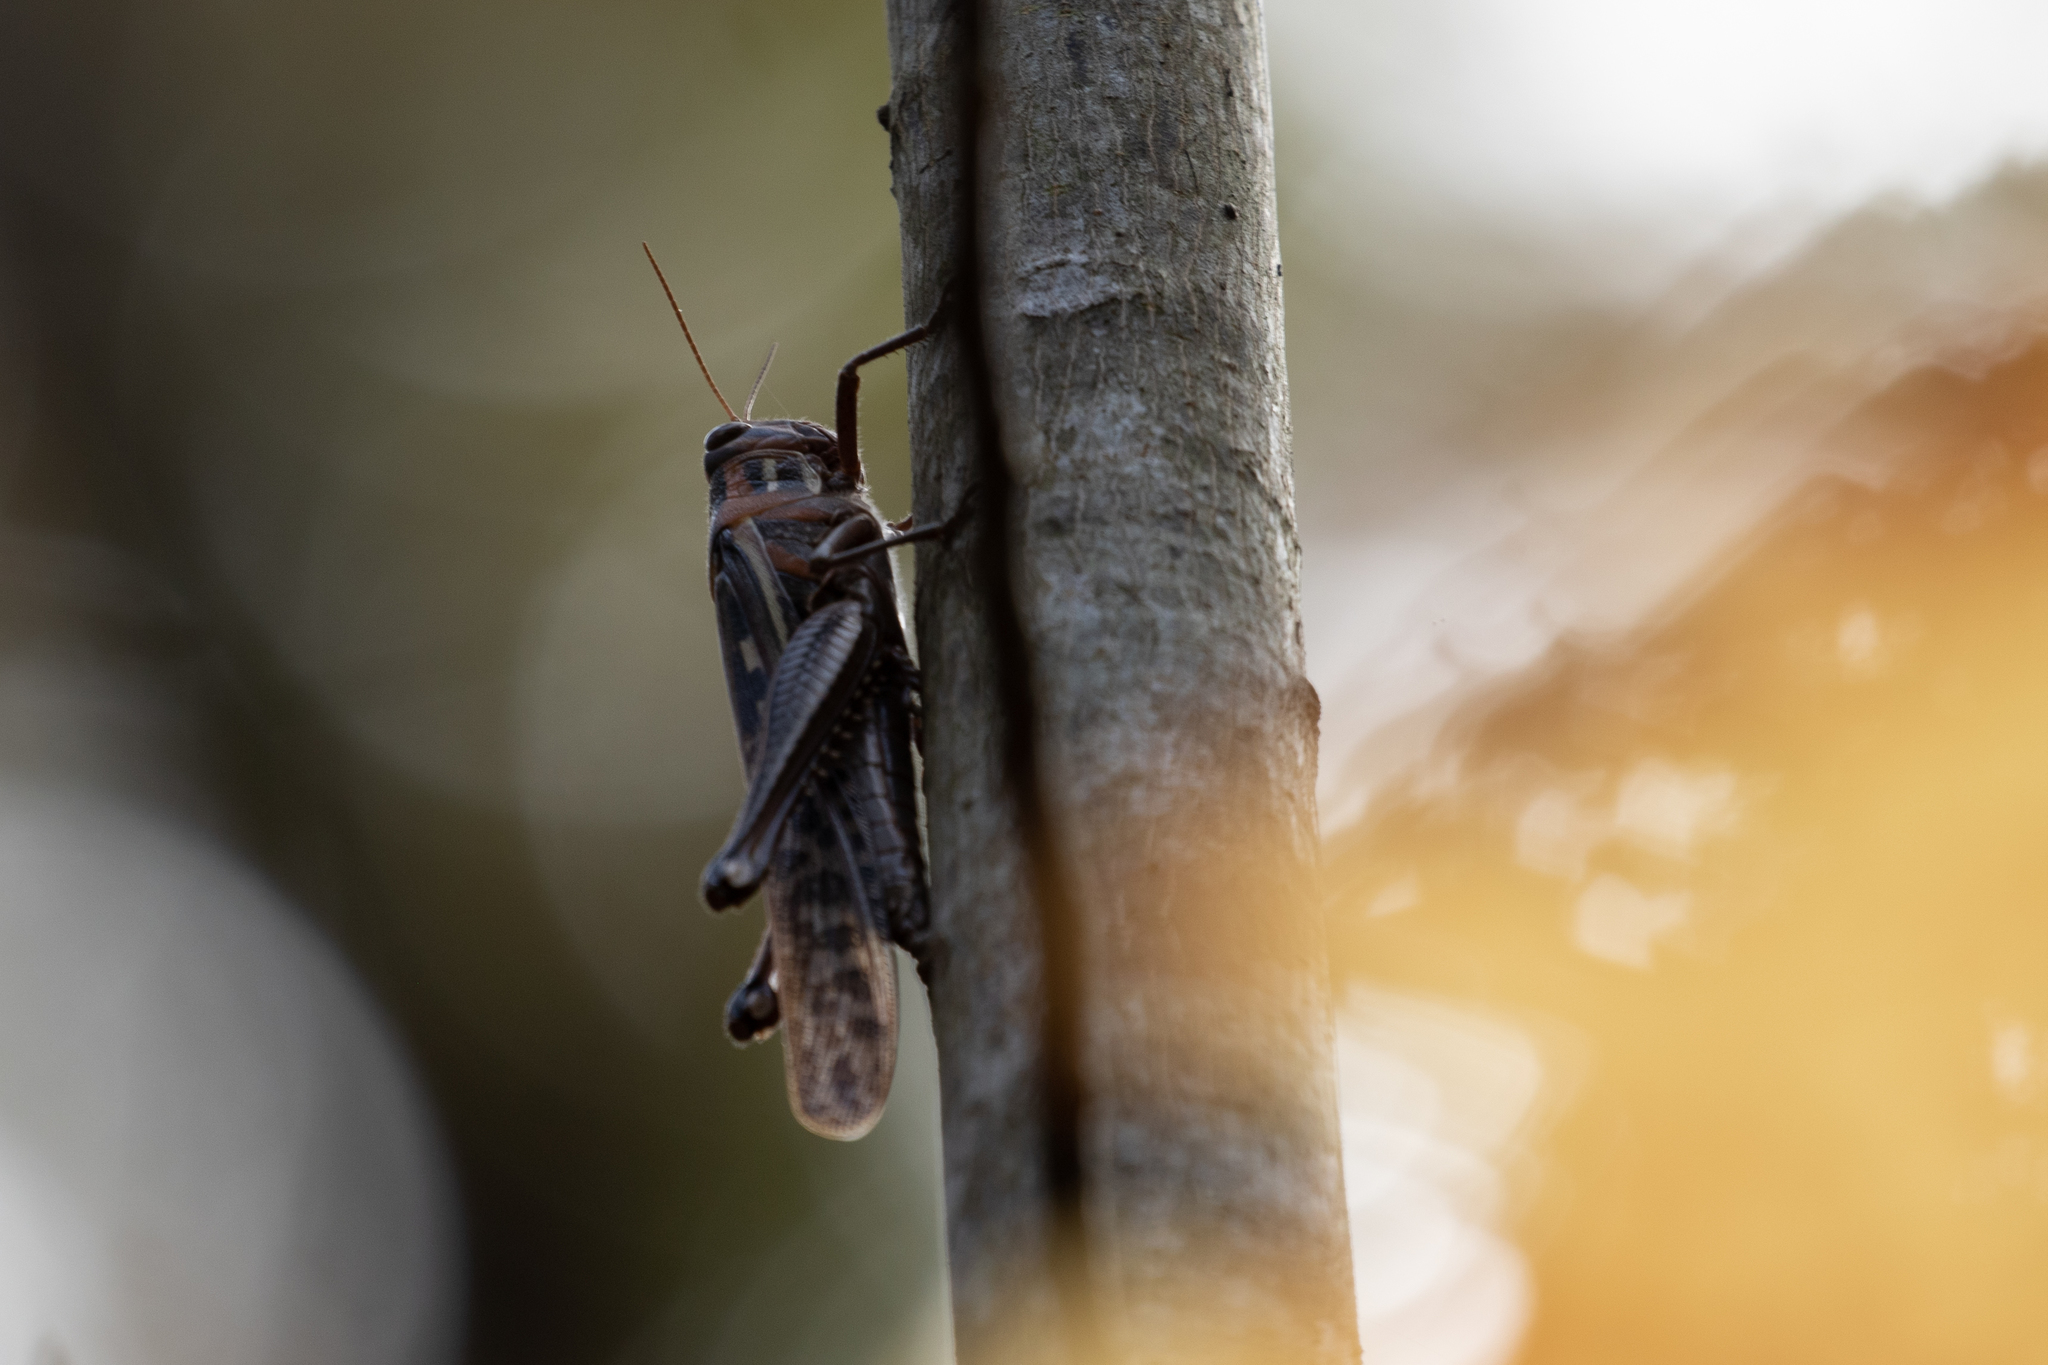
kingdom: Animalia
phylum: Arthropoda
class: Insecta
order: Orthoptera
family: Acrididae
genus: Schistocerca
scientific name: Schistocerca americana
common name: American bird locust
